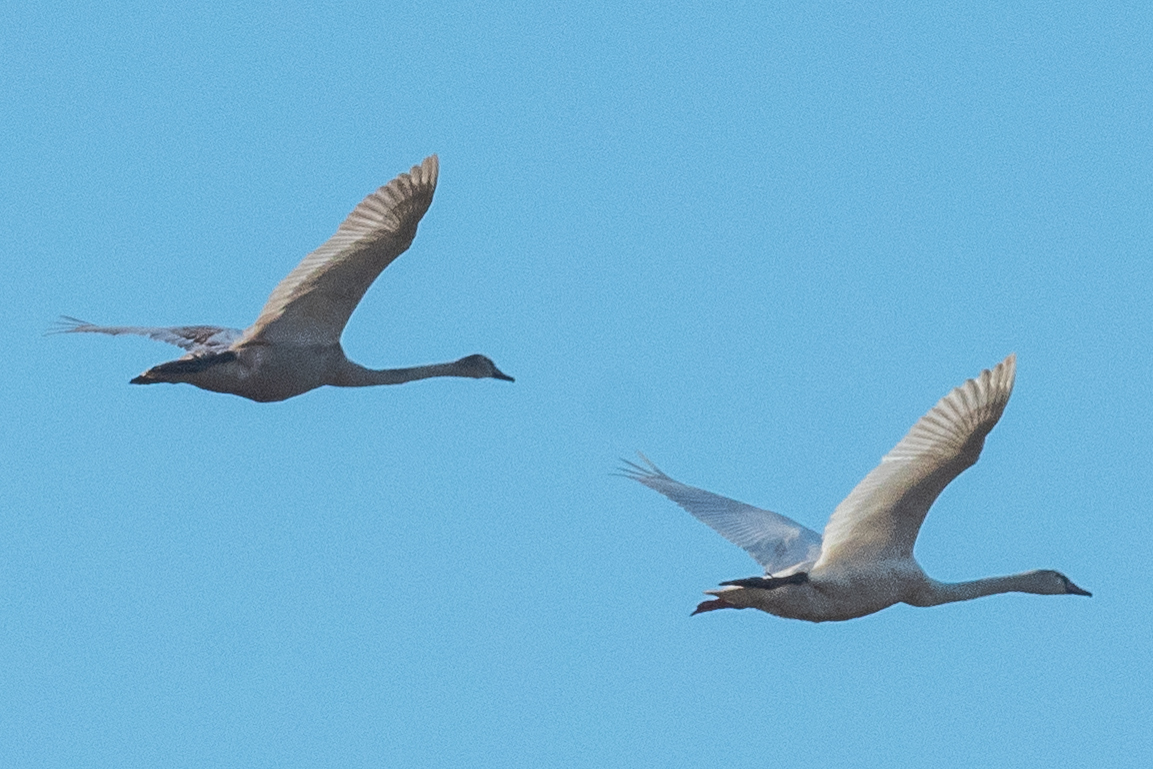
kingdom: Animalia
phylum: Chordata
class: Aves
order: Anseriformes
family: Anatidae
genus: Cygnus
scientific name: Cygnus olor
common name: Mute swan
